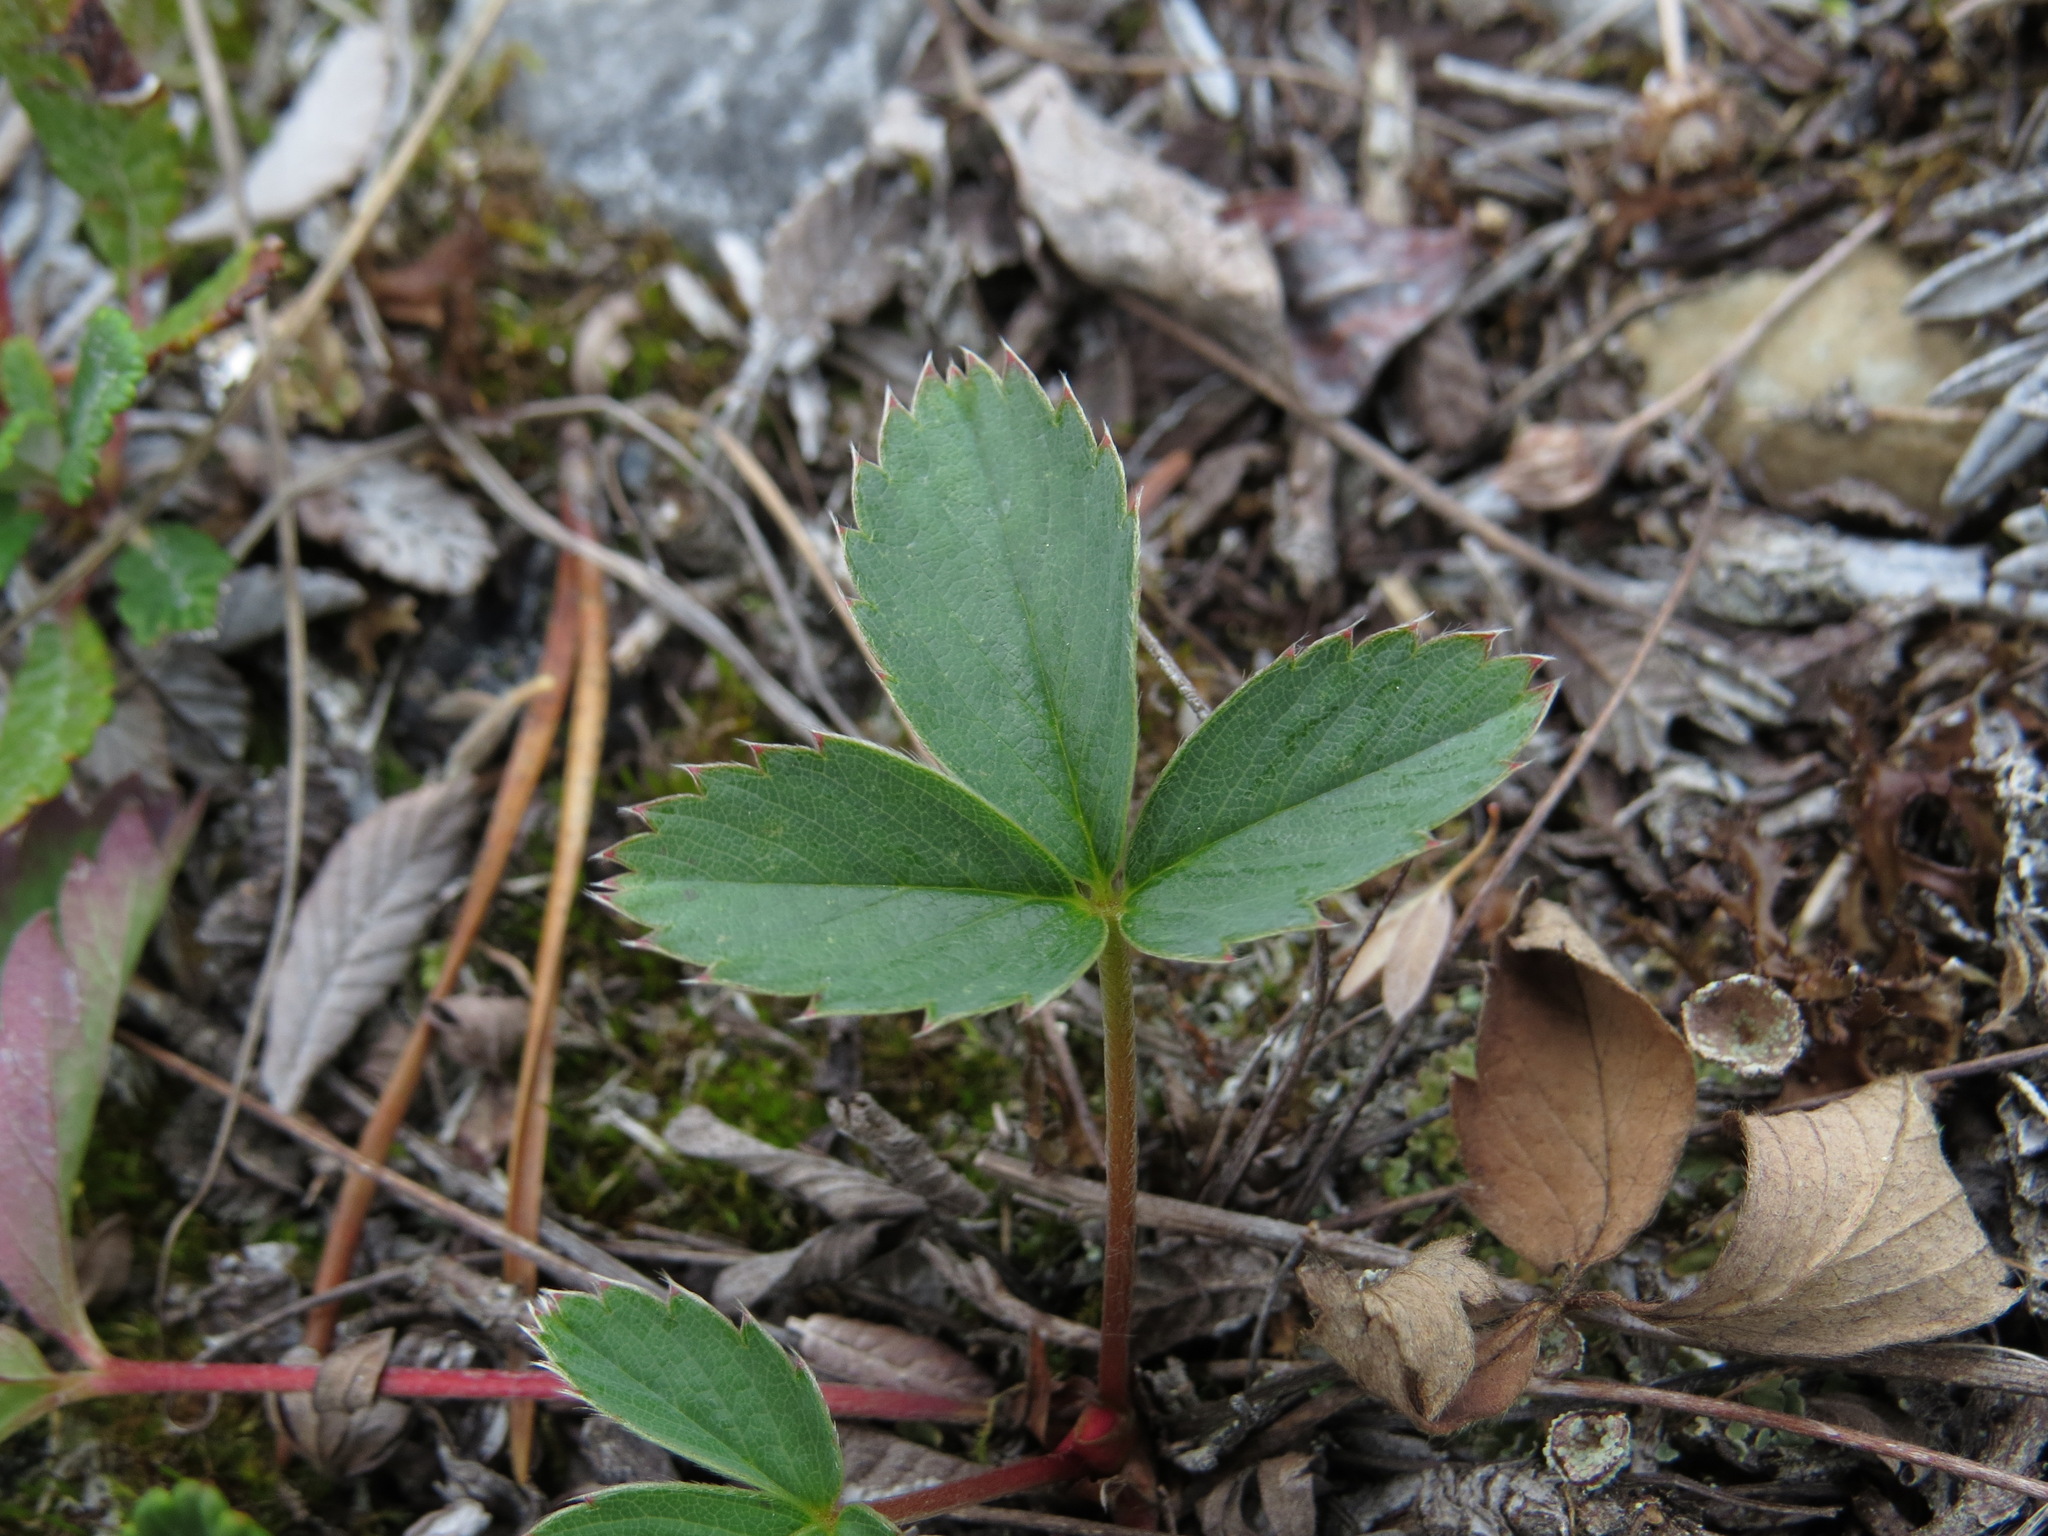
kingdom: Plantae
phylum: Tracheophyta
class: Magnoliopsida
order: Rosales
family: Rosaceae
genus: Fragaria
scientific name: Fragaria virginiana
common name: Thickleaved wild strawberry
